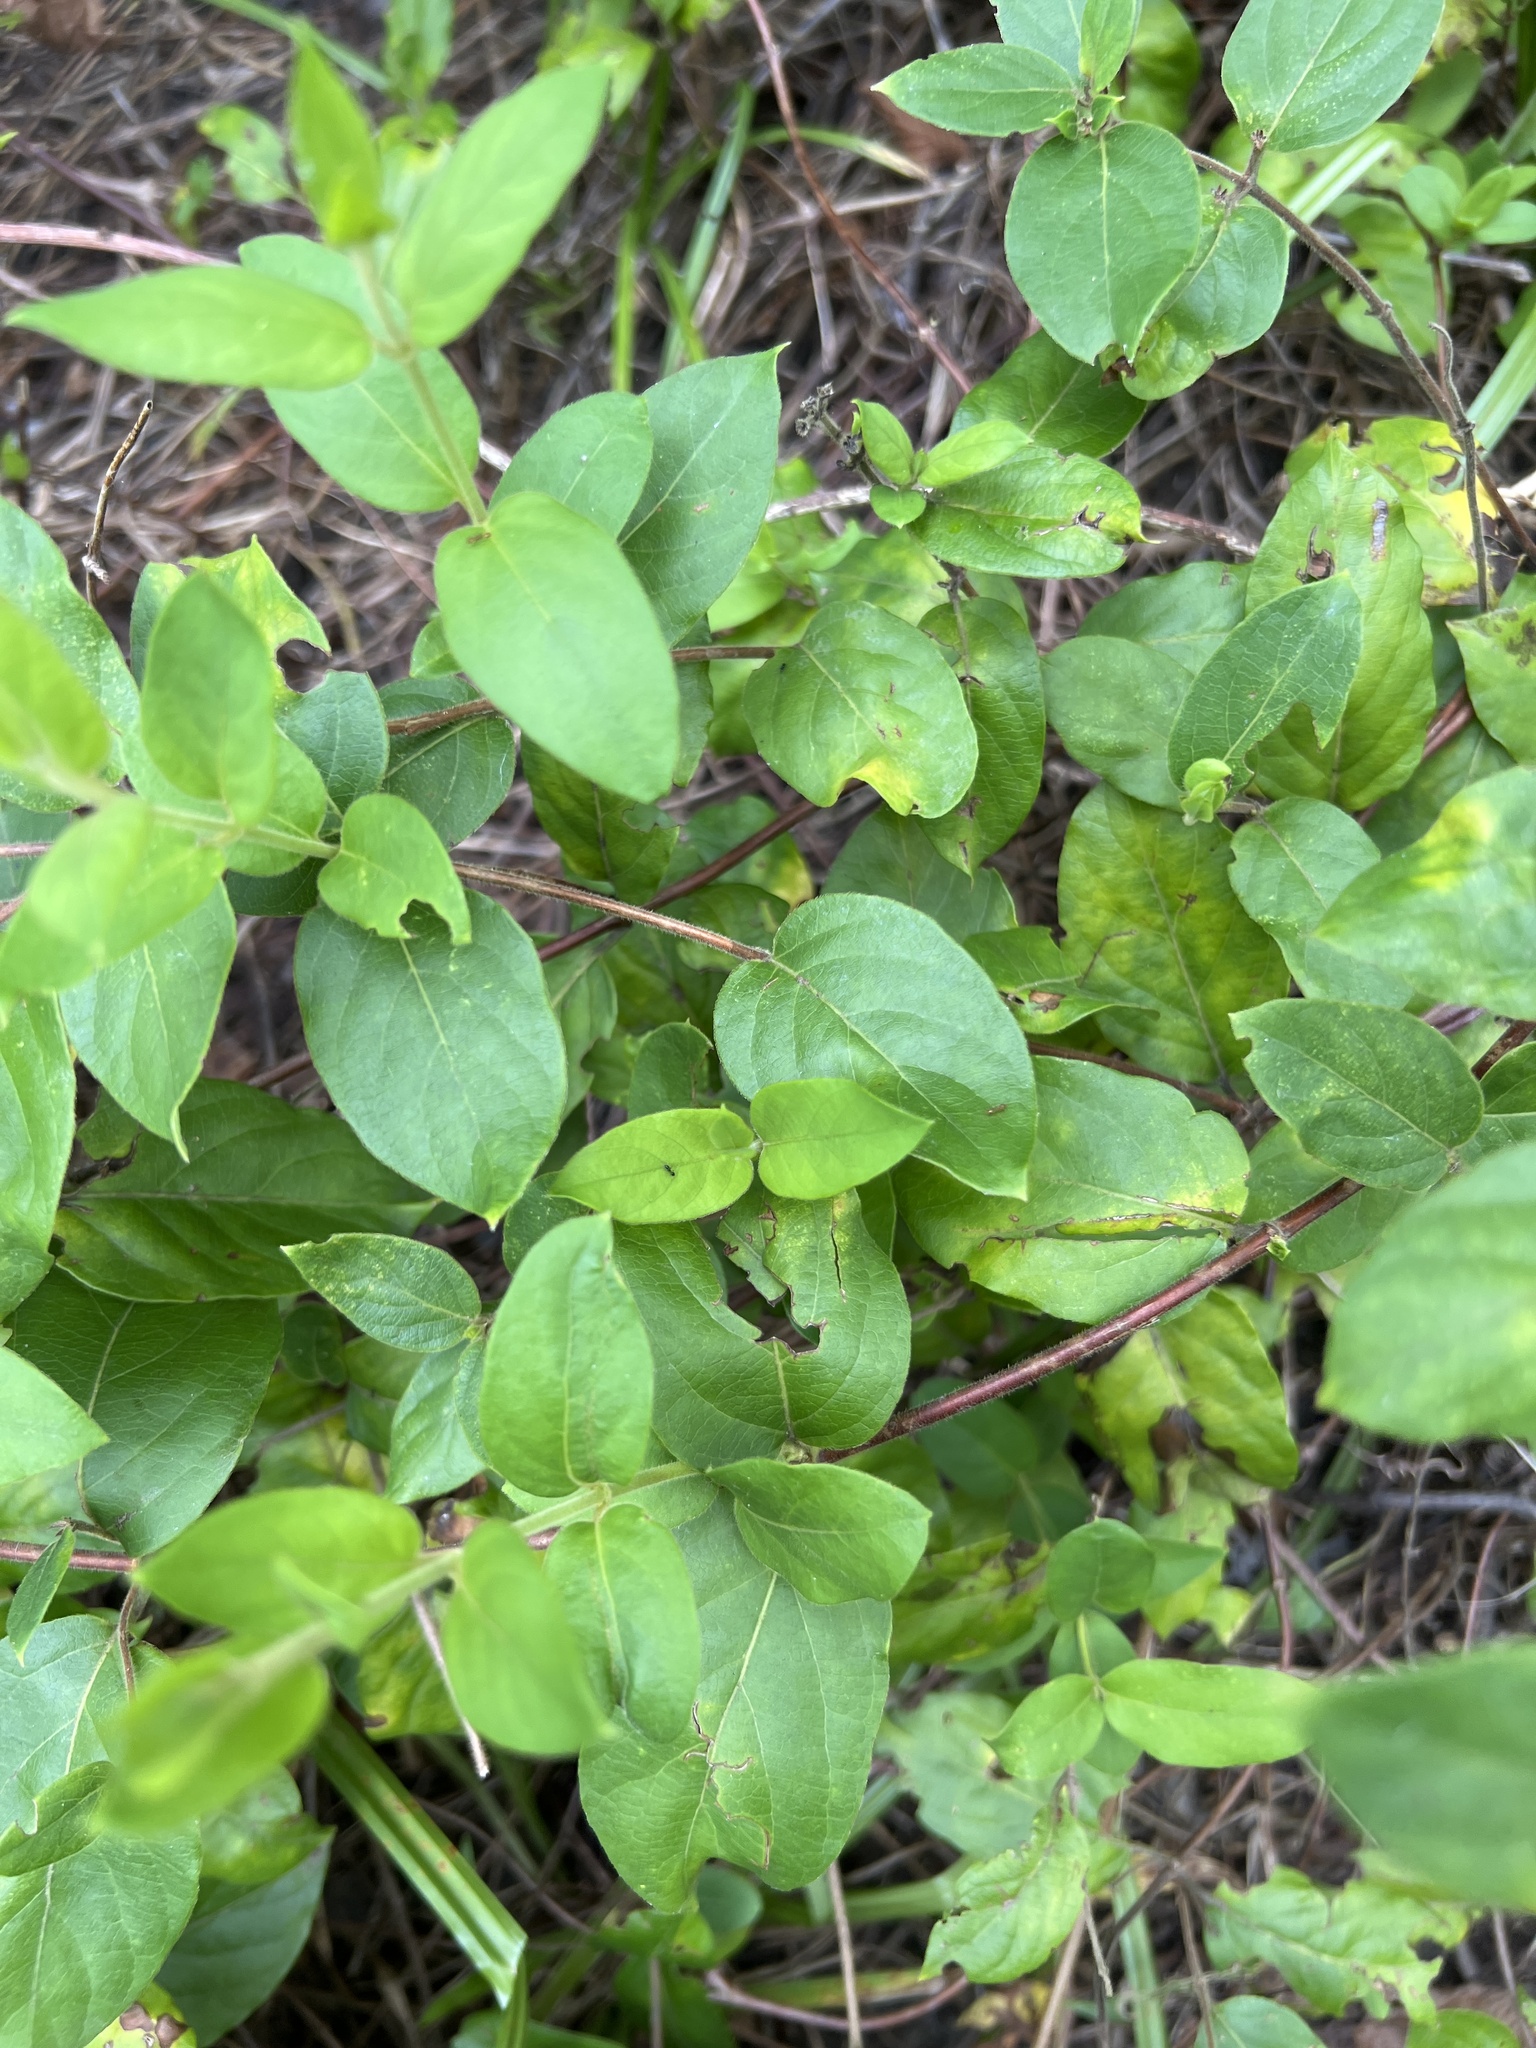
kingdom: Plantae
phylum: Tracheophyta
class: Magnoliopsida
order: Dipsacales
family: Caprifoliaceae
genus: Lonicera
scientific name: Lonicera japonica
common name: Japanese honeysuckle
